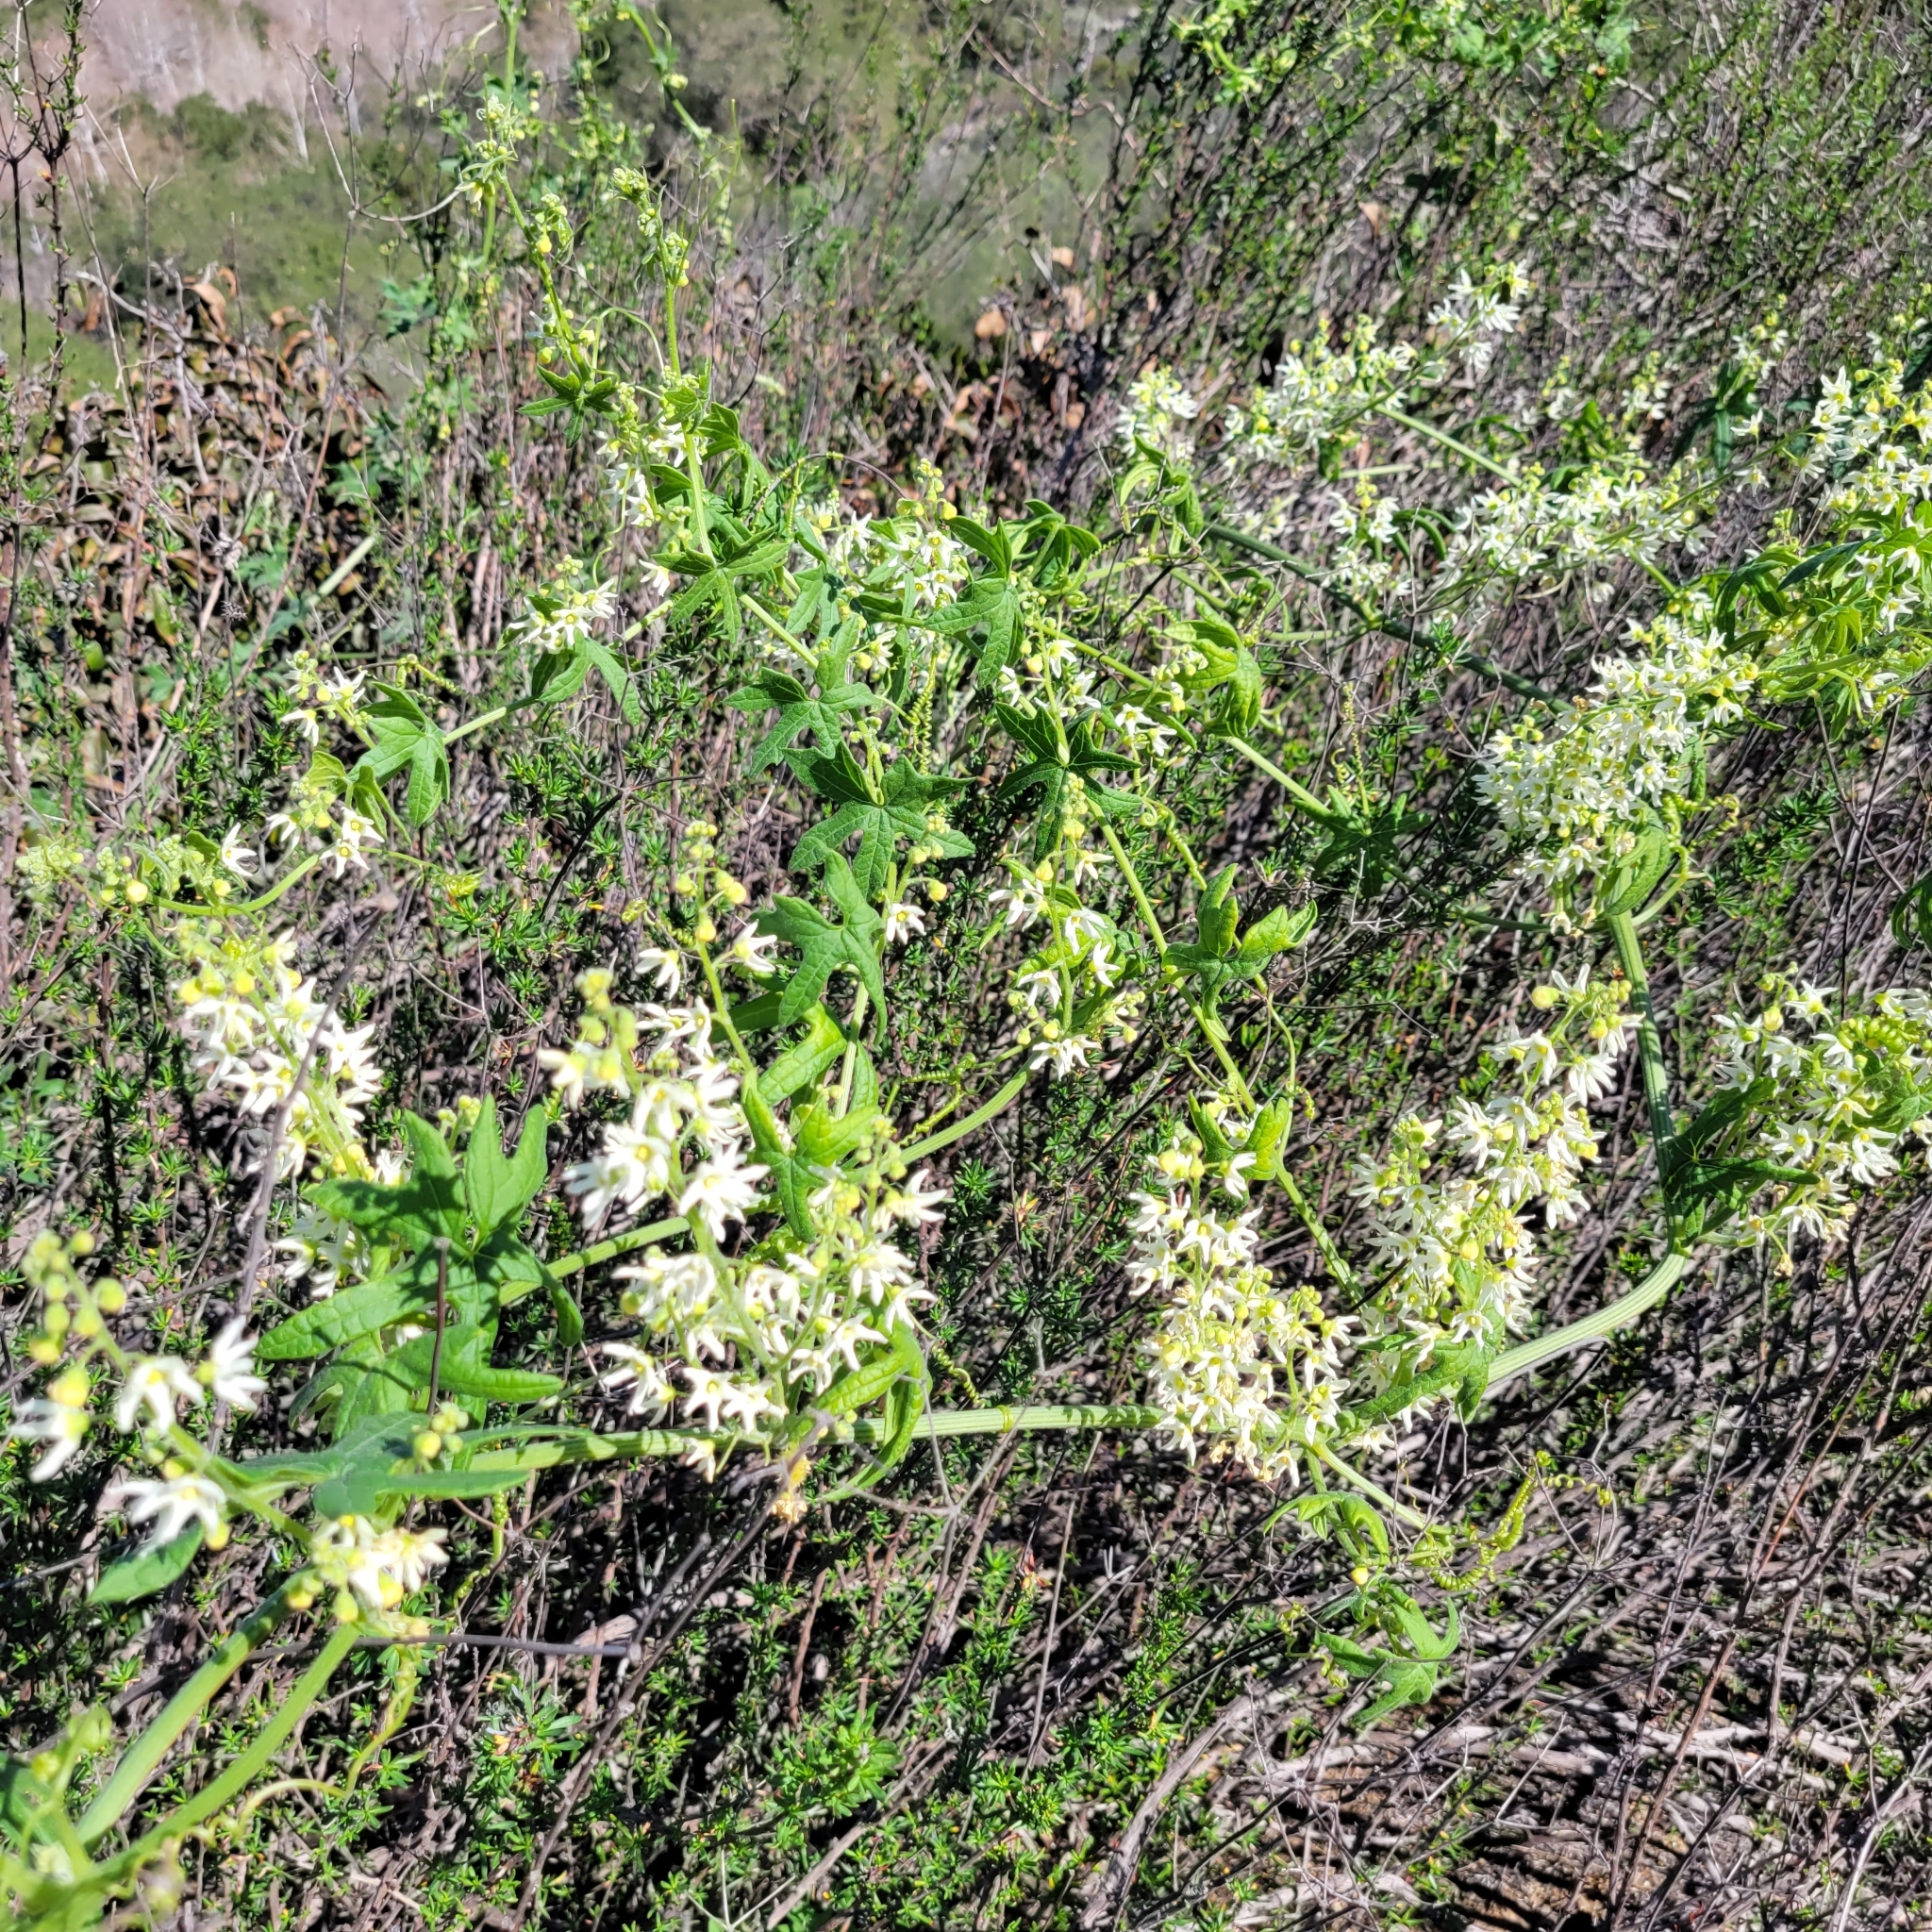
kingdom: Plantae
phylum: Tracheophyta
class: Magnoliopsida
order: Cucurbitales
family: Cucurbitaceae
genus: Marah
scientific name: Marah macrocarpa
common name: Cucamonga manroot
